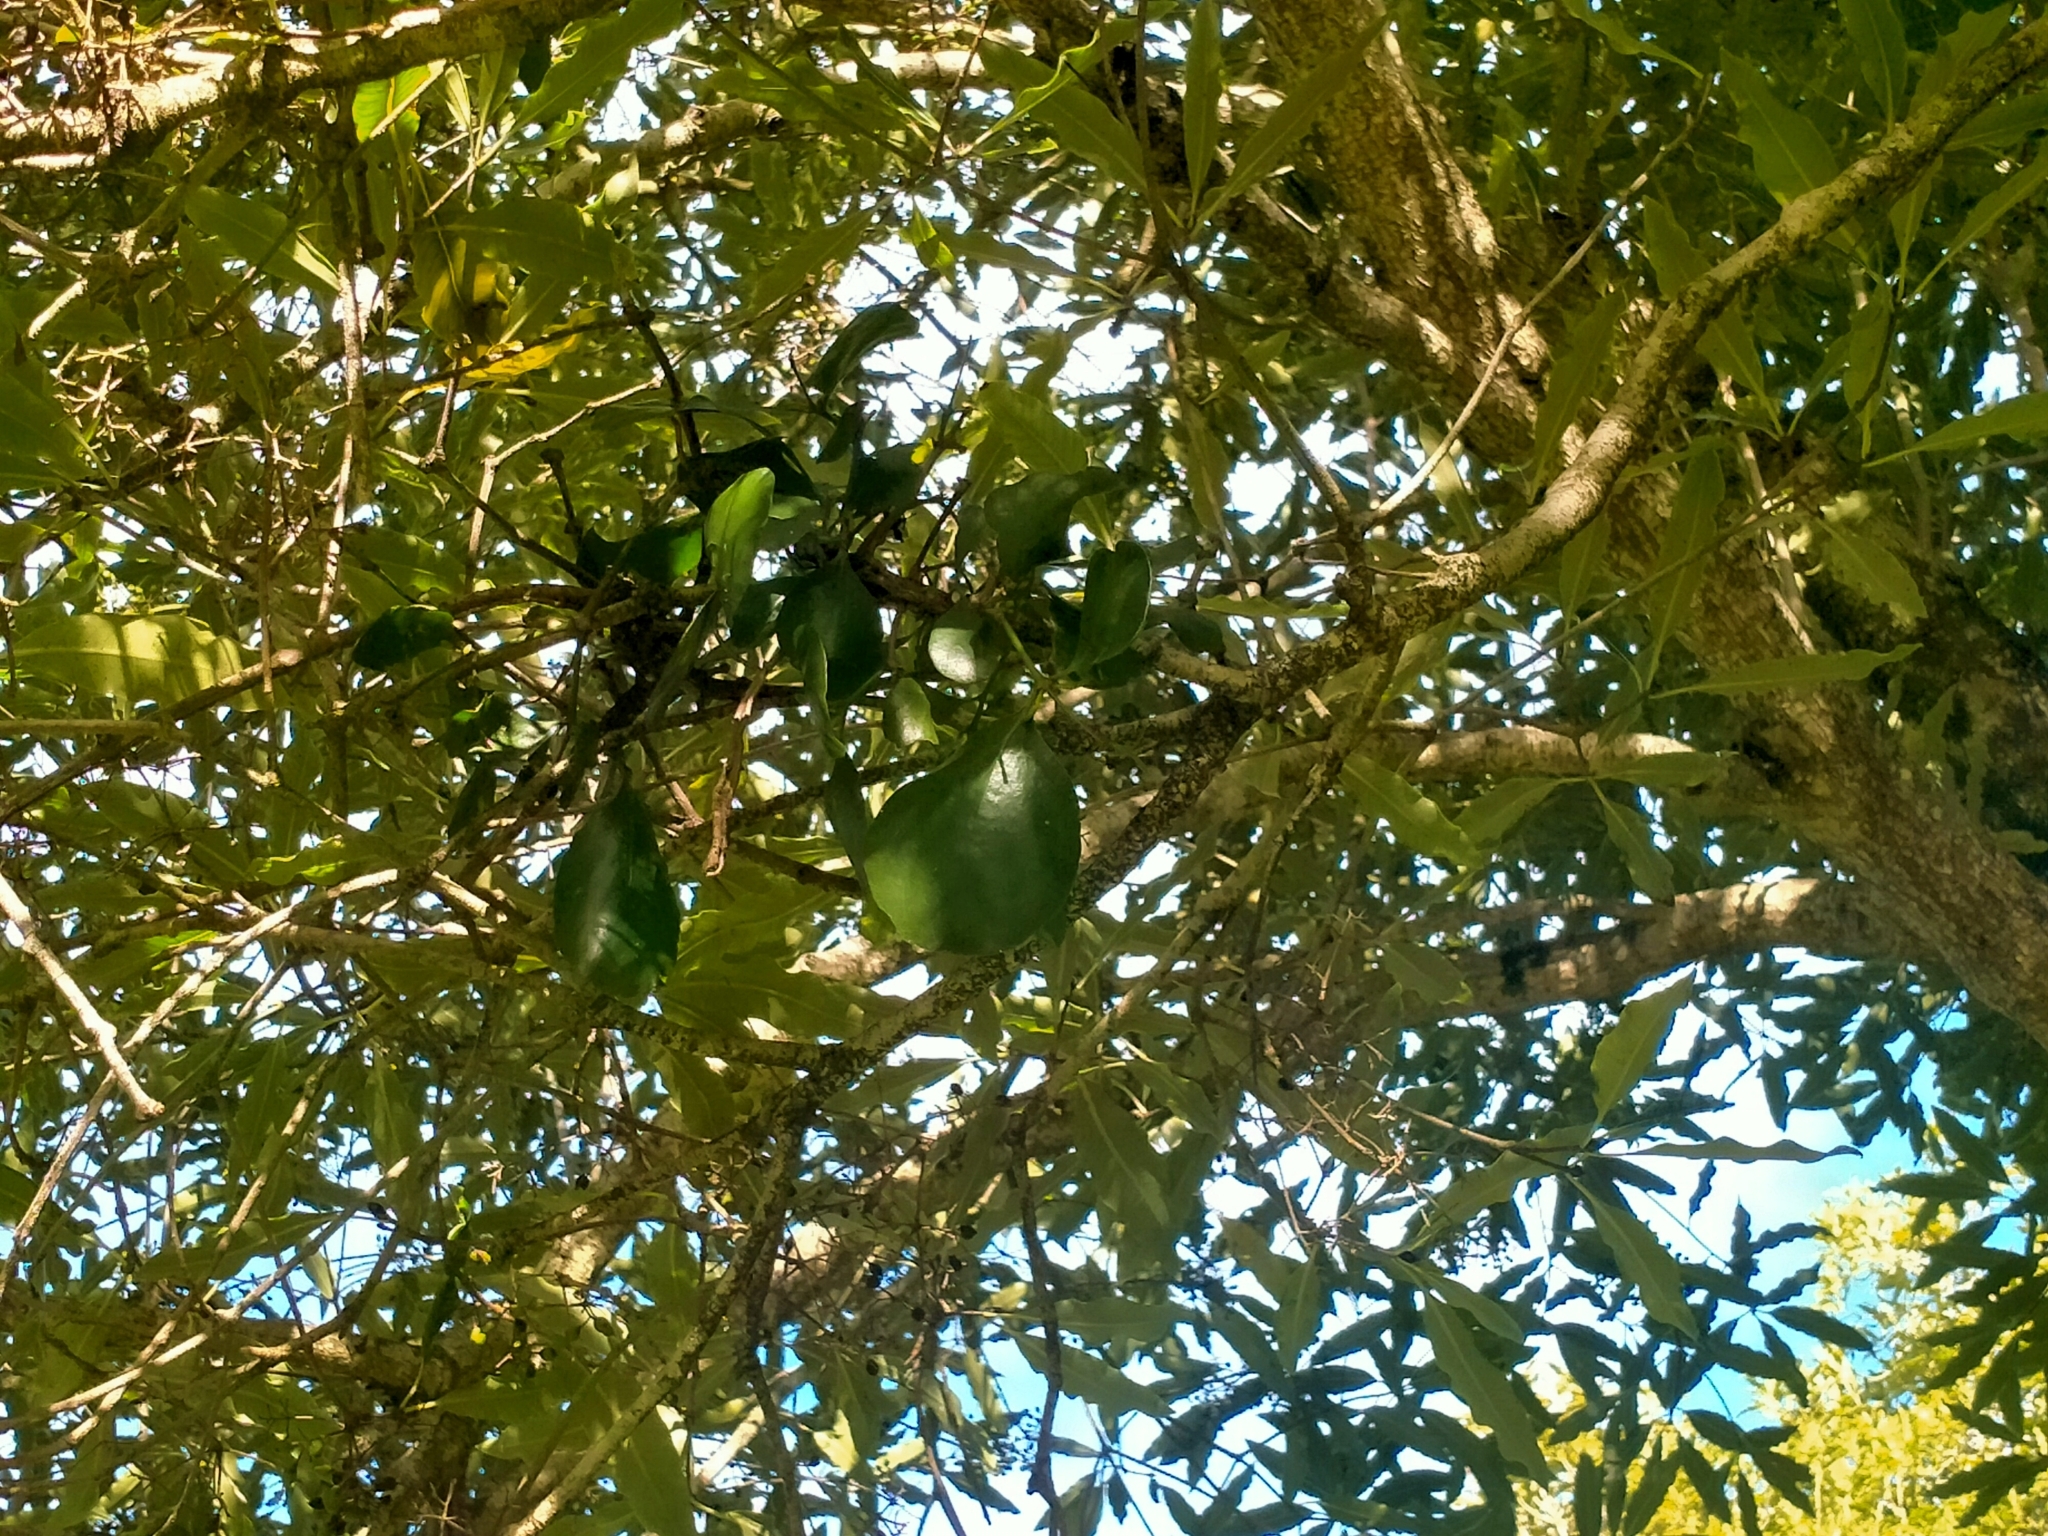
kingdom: Plantae
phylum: Tracheophyta
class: Magnoliopsida
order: Santalales
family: Loranthaceae
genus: Ileostylus
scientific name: Ileostylus micranthus
